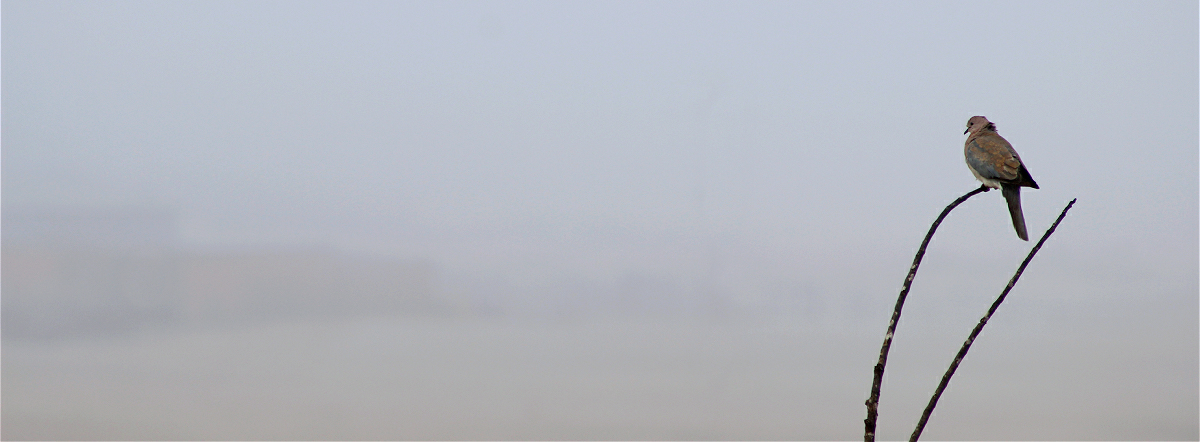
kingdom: Animalia
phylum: Chordata
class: Aves
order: Columbiformes
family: Columbidae
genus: Spilopelia
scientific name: Spilopelia senegalensis
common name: Laughing dove
